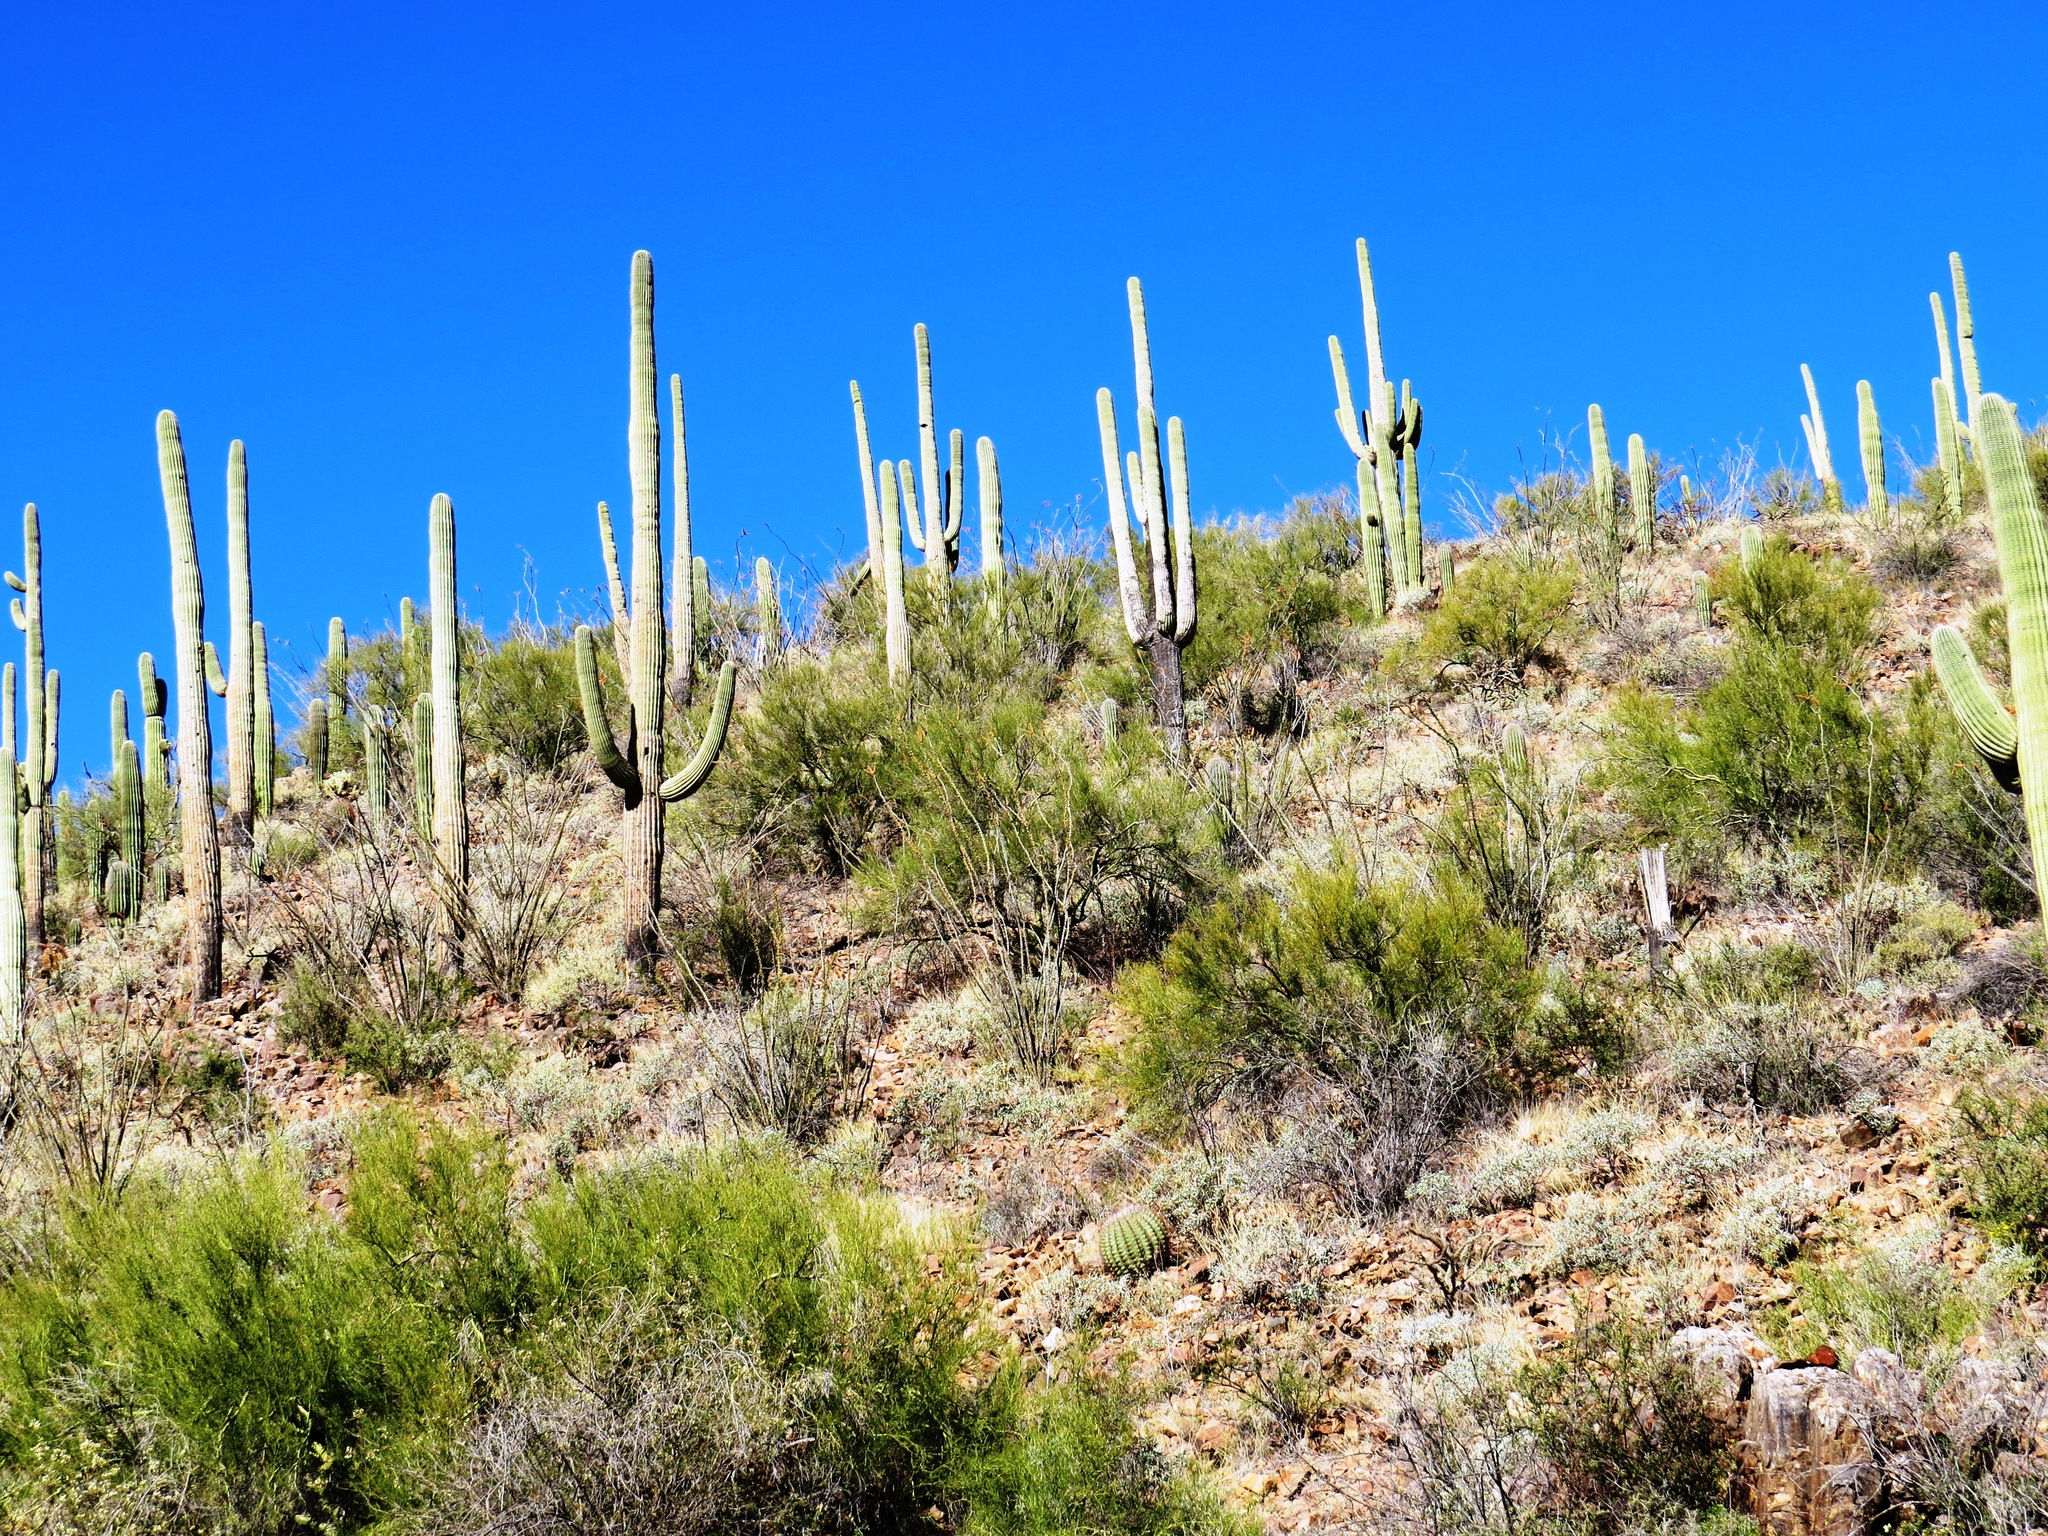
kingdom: Plantae
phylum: Tracheophyta
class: Magnoliopsida
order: Caryophyllales
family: Cactaceae
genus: Carnegiea
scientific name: Carnegiea gigantea
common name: Saguaro
